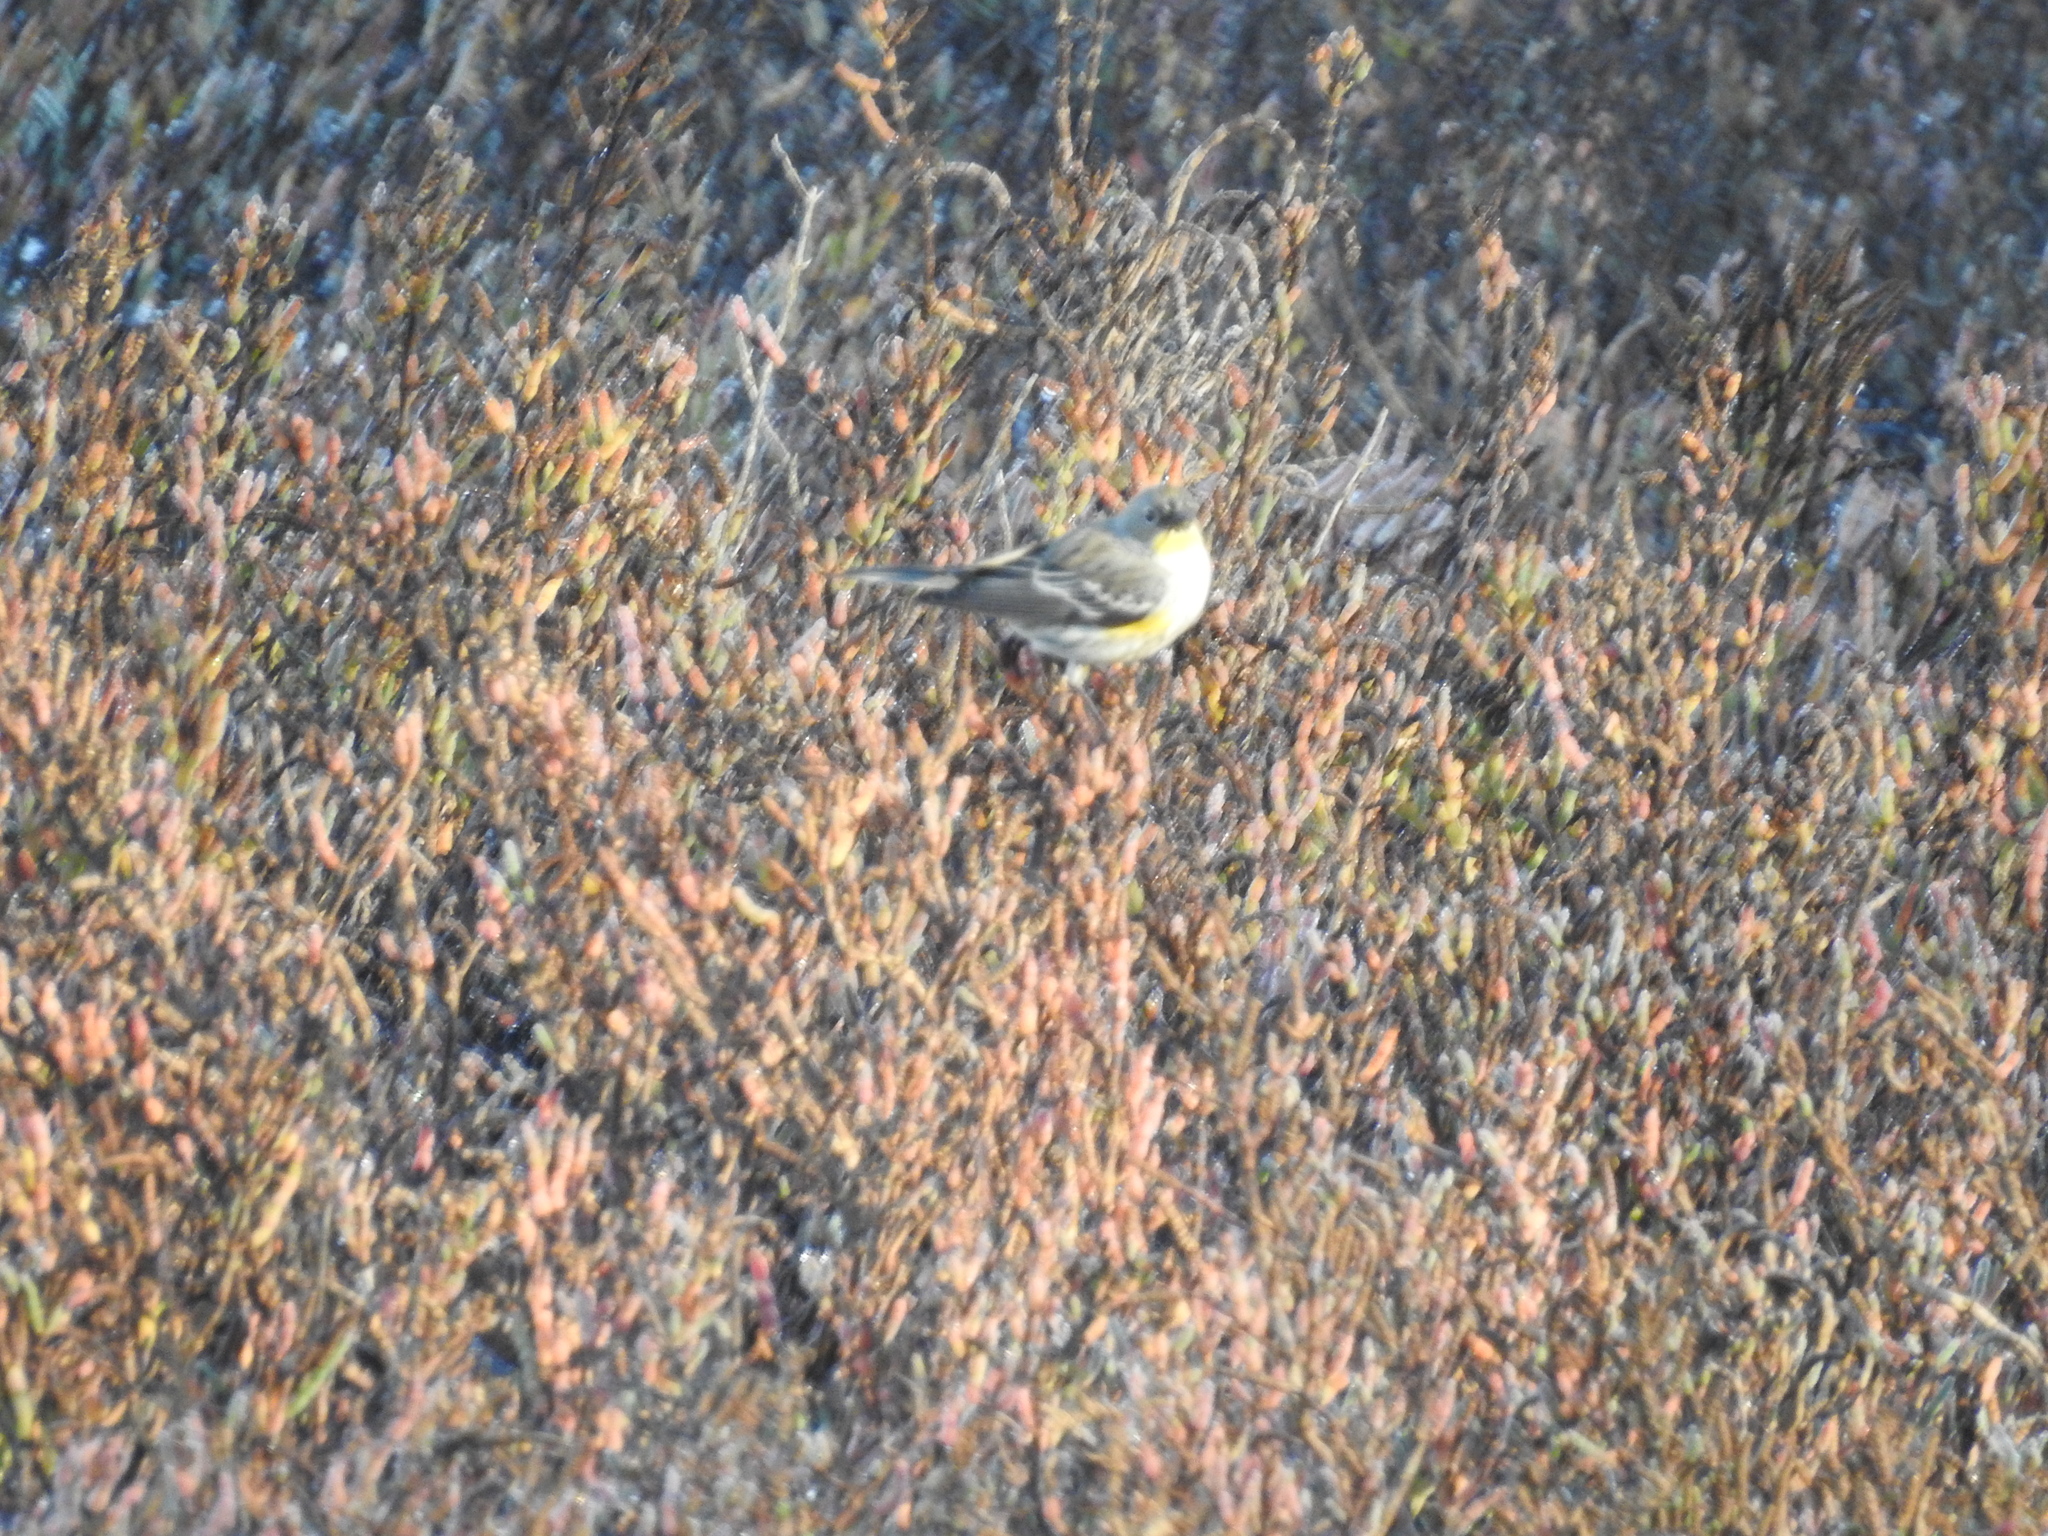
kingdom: Animalia
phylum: Chordata
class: Aves
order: Passeriformes
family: Parulidae
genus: Setophaga
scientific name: Setophaga coronata
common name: Myrtle warbler
